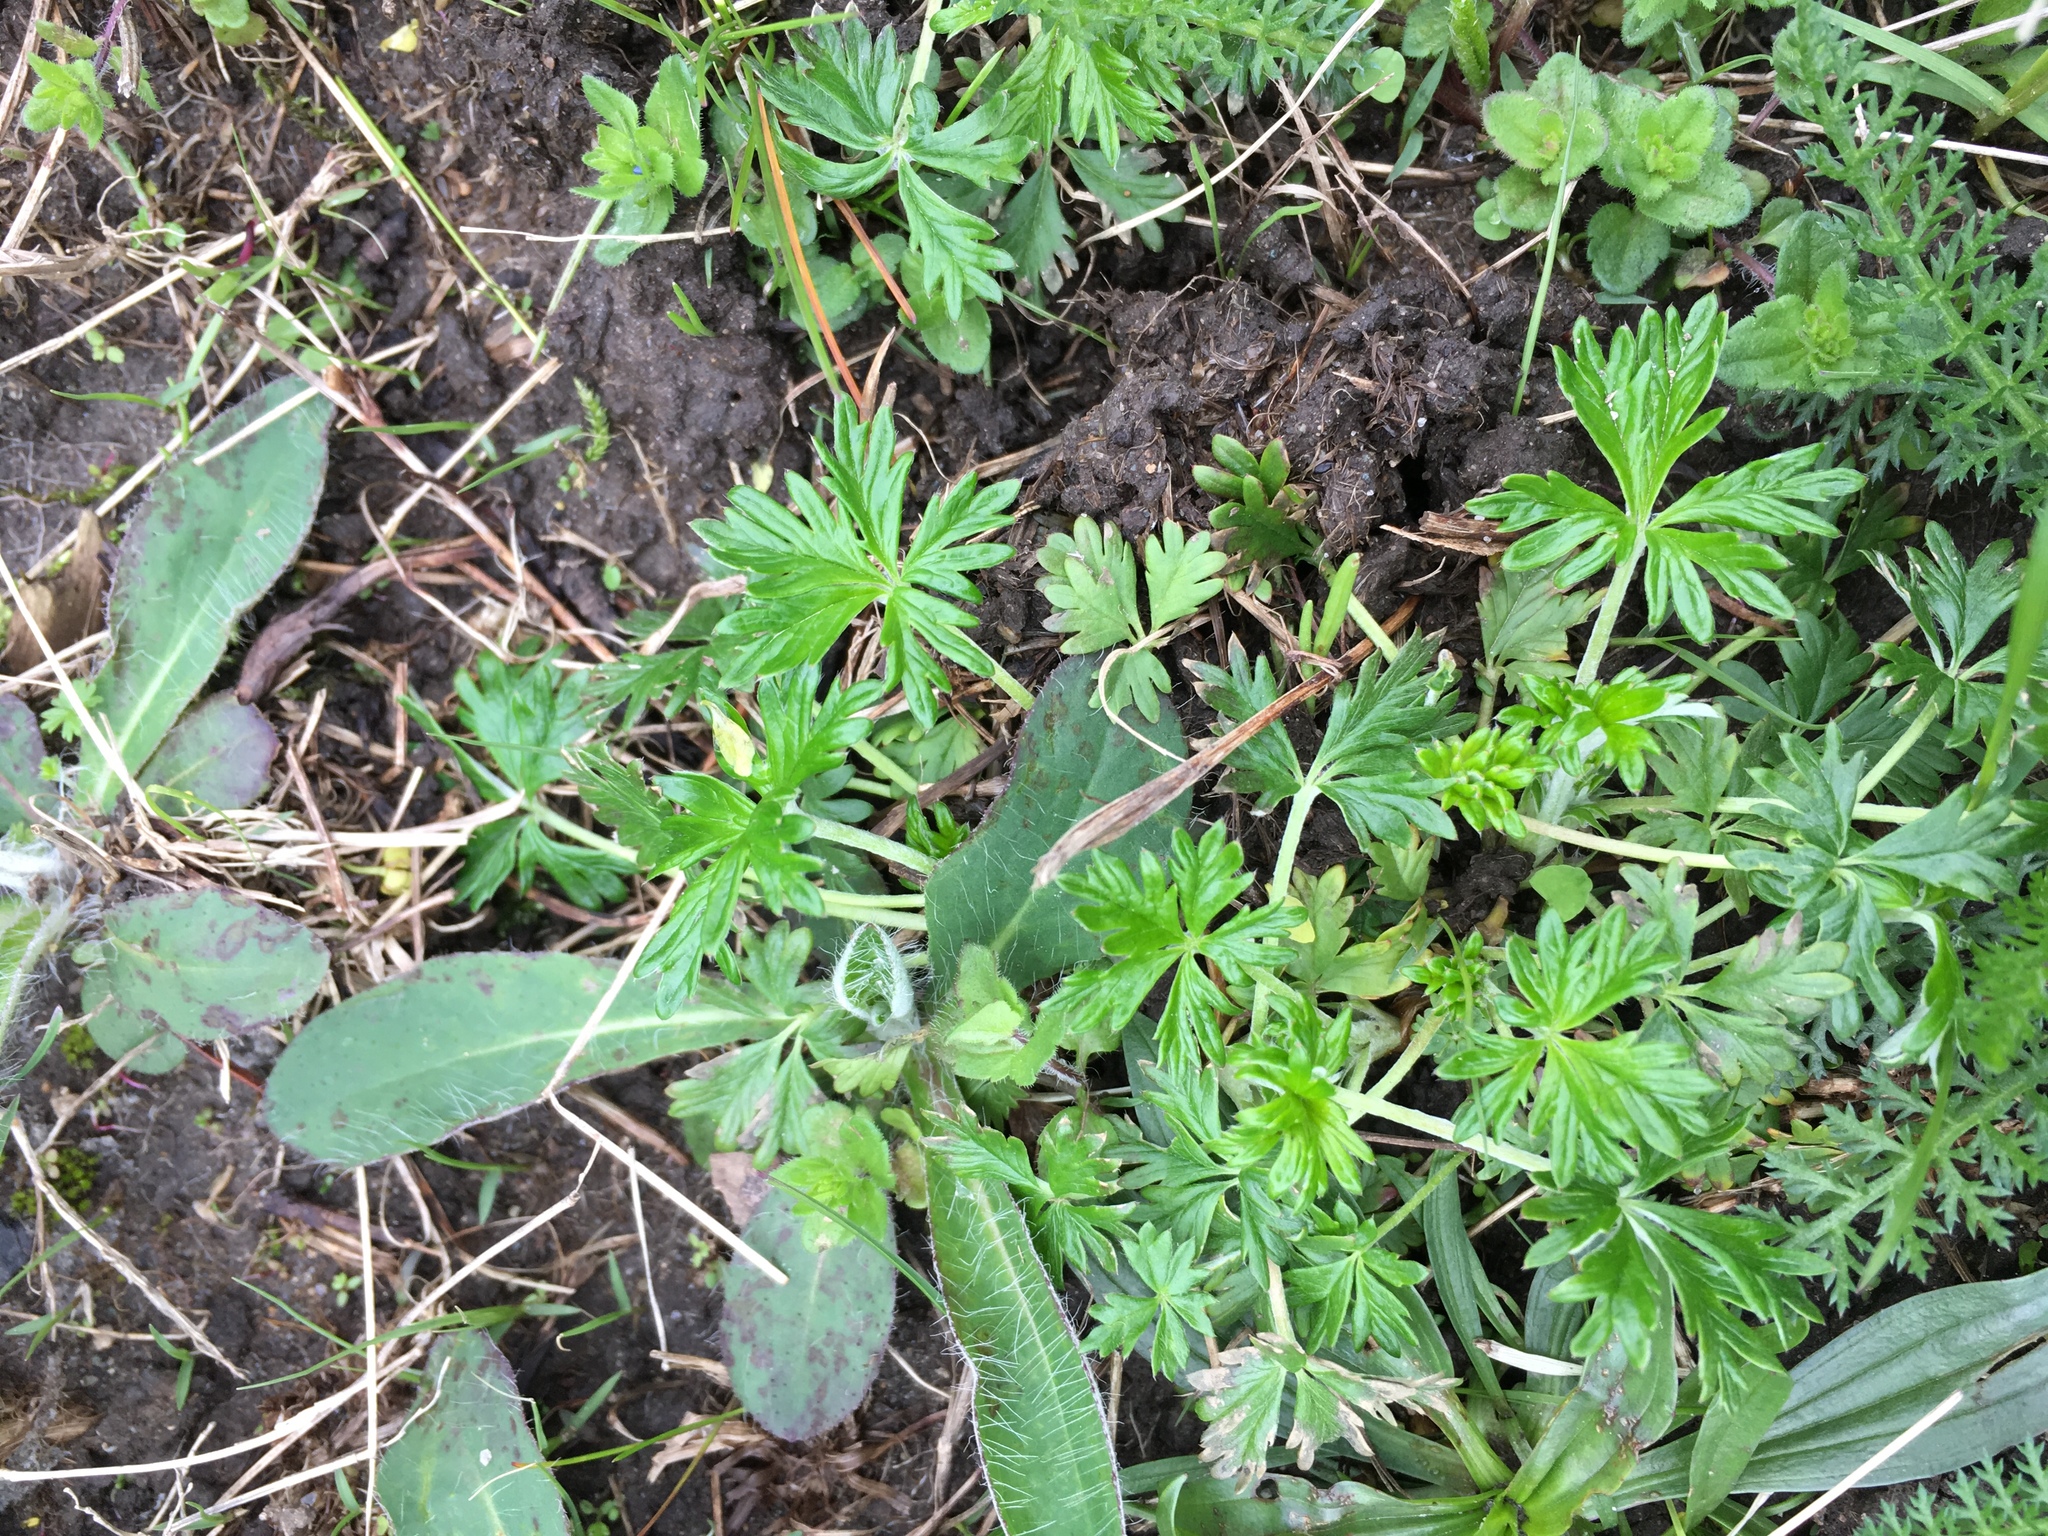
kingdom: Plantae
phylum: Tracheophyta
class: Magnoliopsida
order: Rosales
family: Rosaceae
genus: Potentilla
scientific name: Potentilla argentea
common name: Hoary cinquefoil
